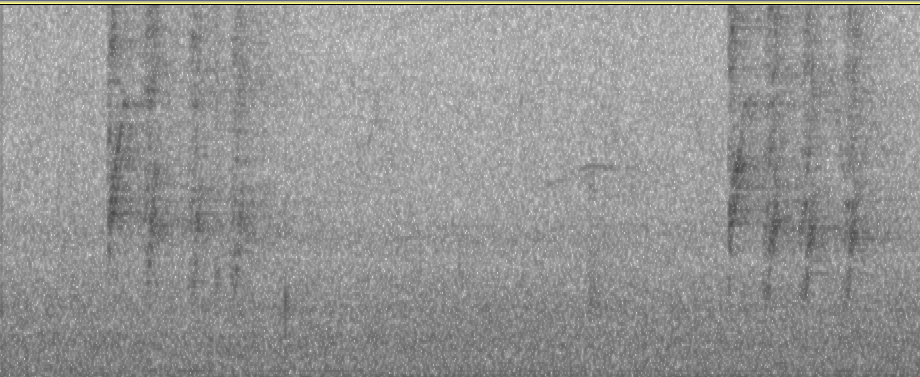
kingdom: Animalia
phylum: Chordata
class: Aves
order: Passeriformes
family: Corvidae
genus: Urocissa
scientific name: Urocissa erythroryncha
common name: Red-billed blue magpie
